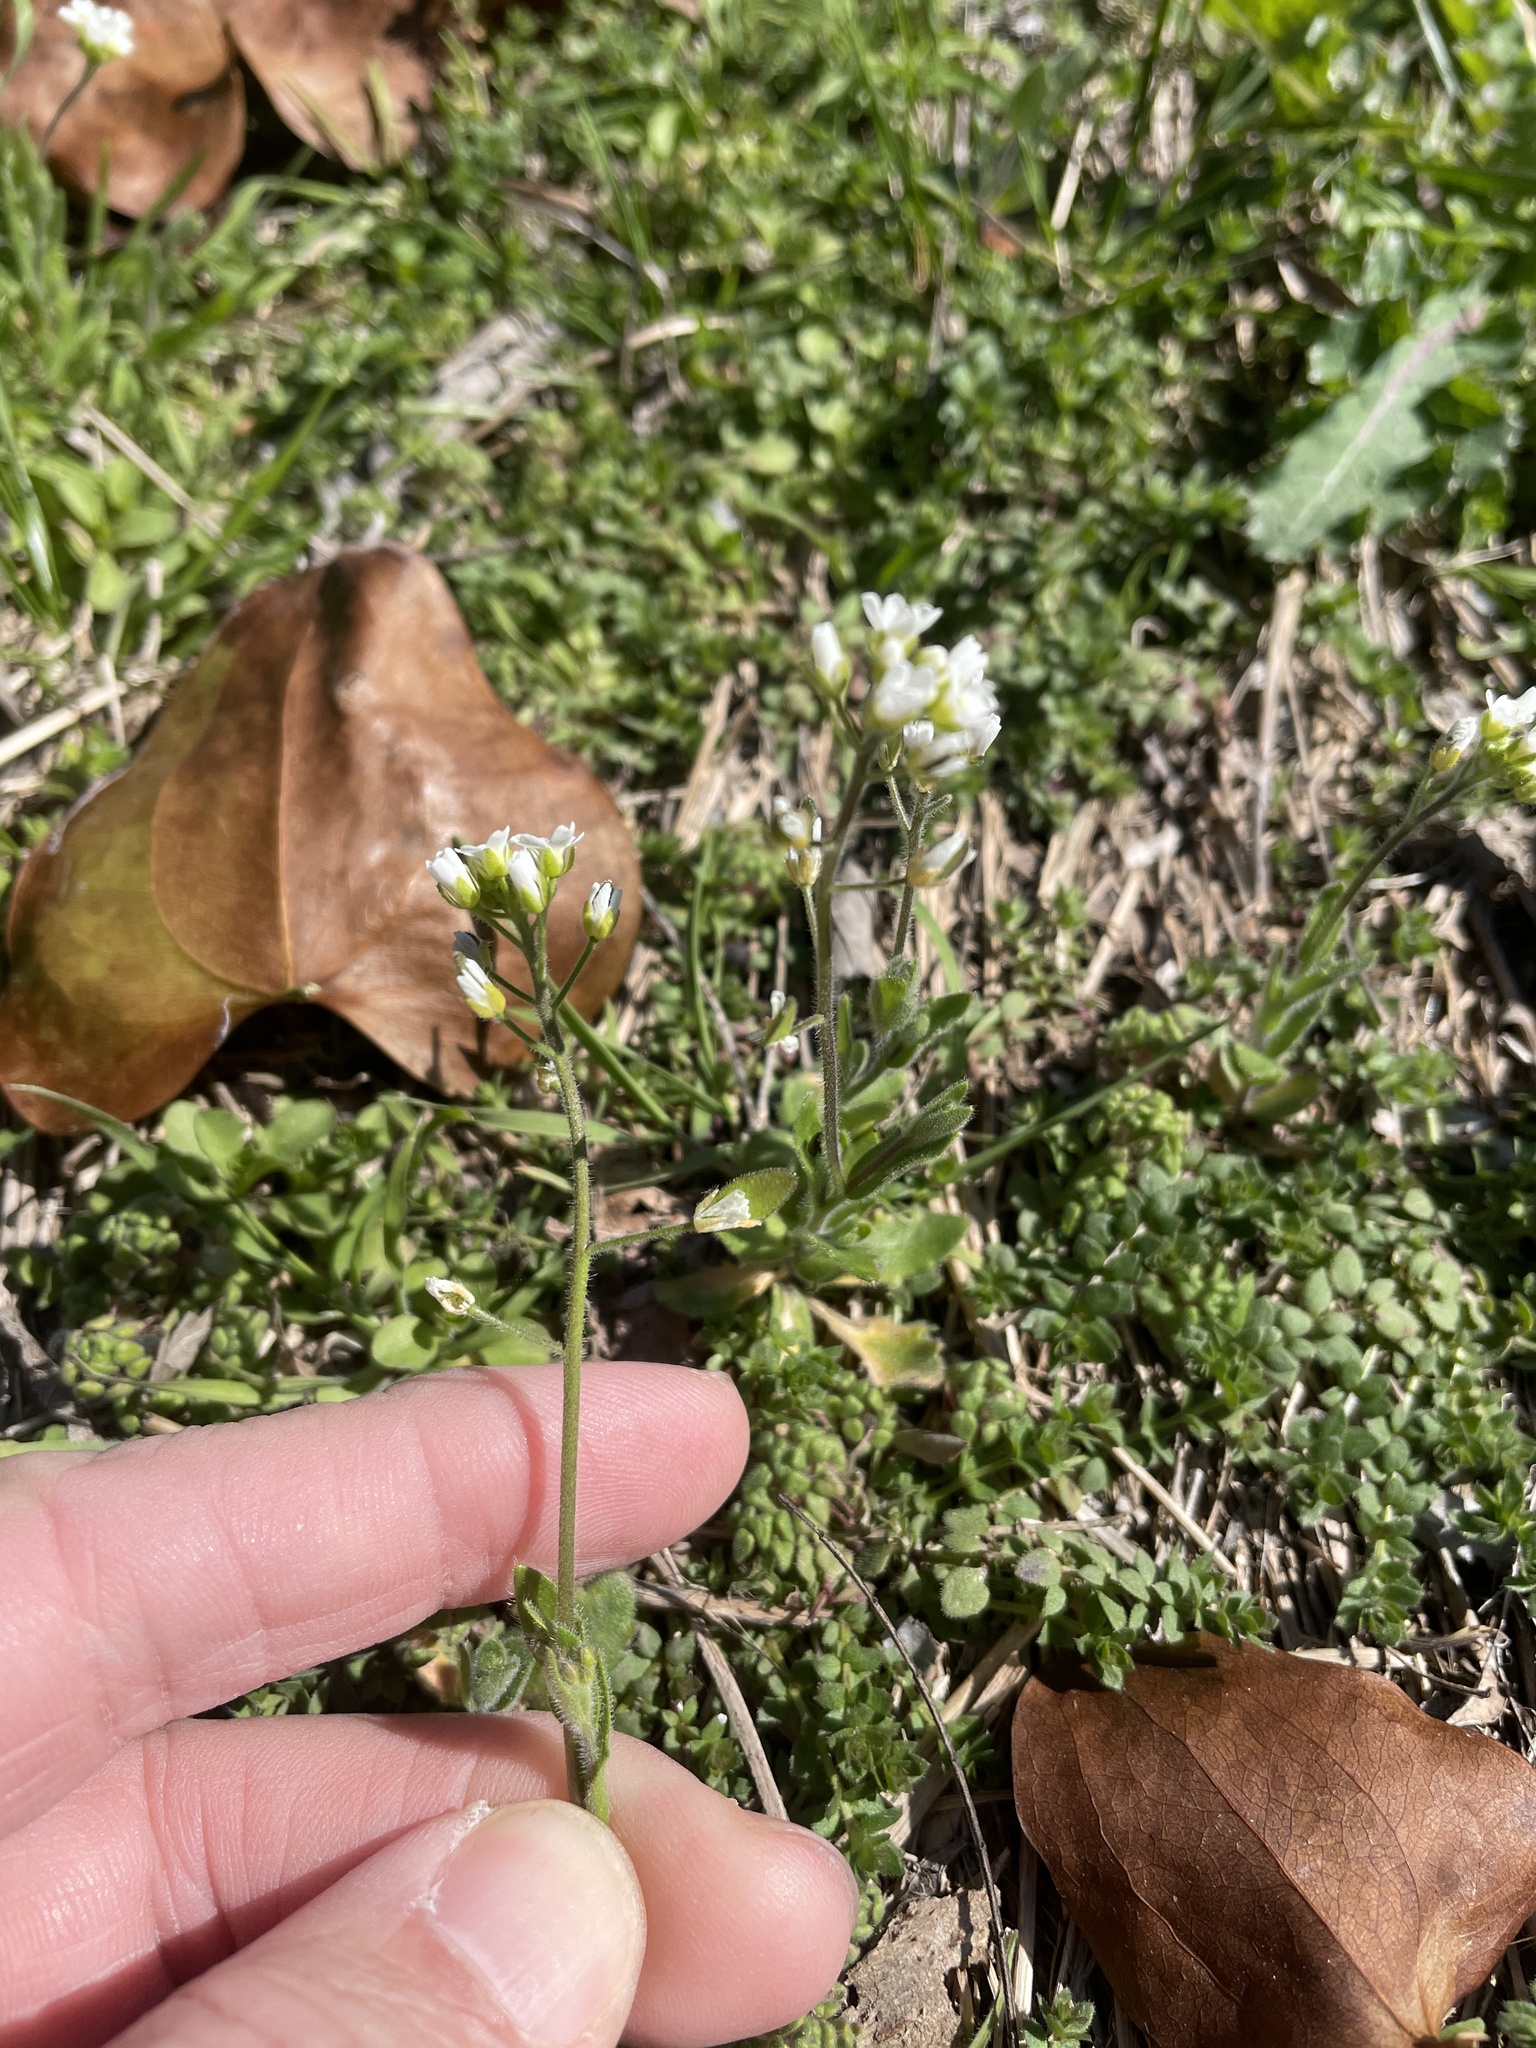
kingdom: Plantae
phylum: Tracheophyta
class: Magnoliopsida
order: Brassicales
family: Brassicaceae
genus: Tomostima
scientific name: Tomostima platycarpa
